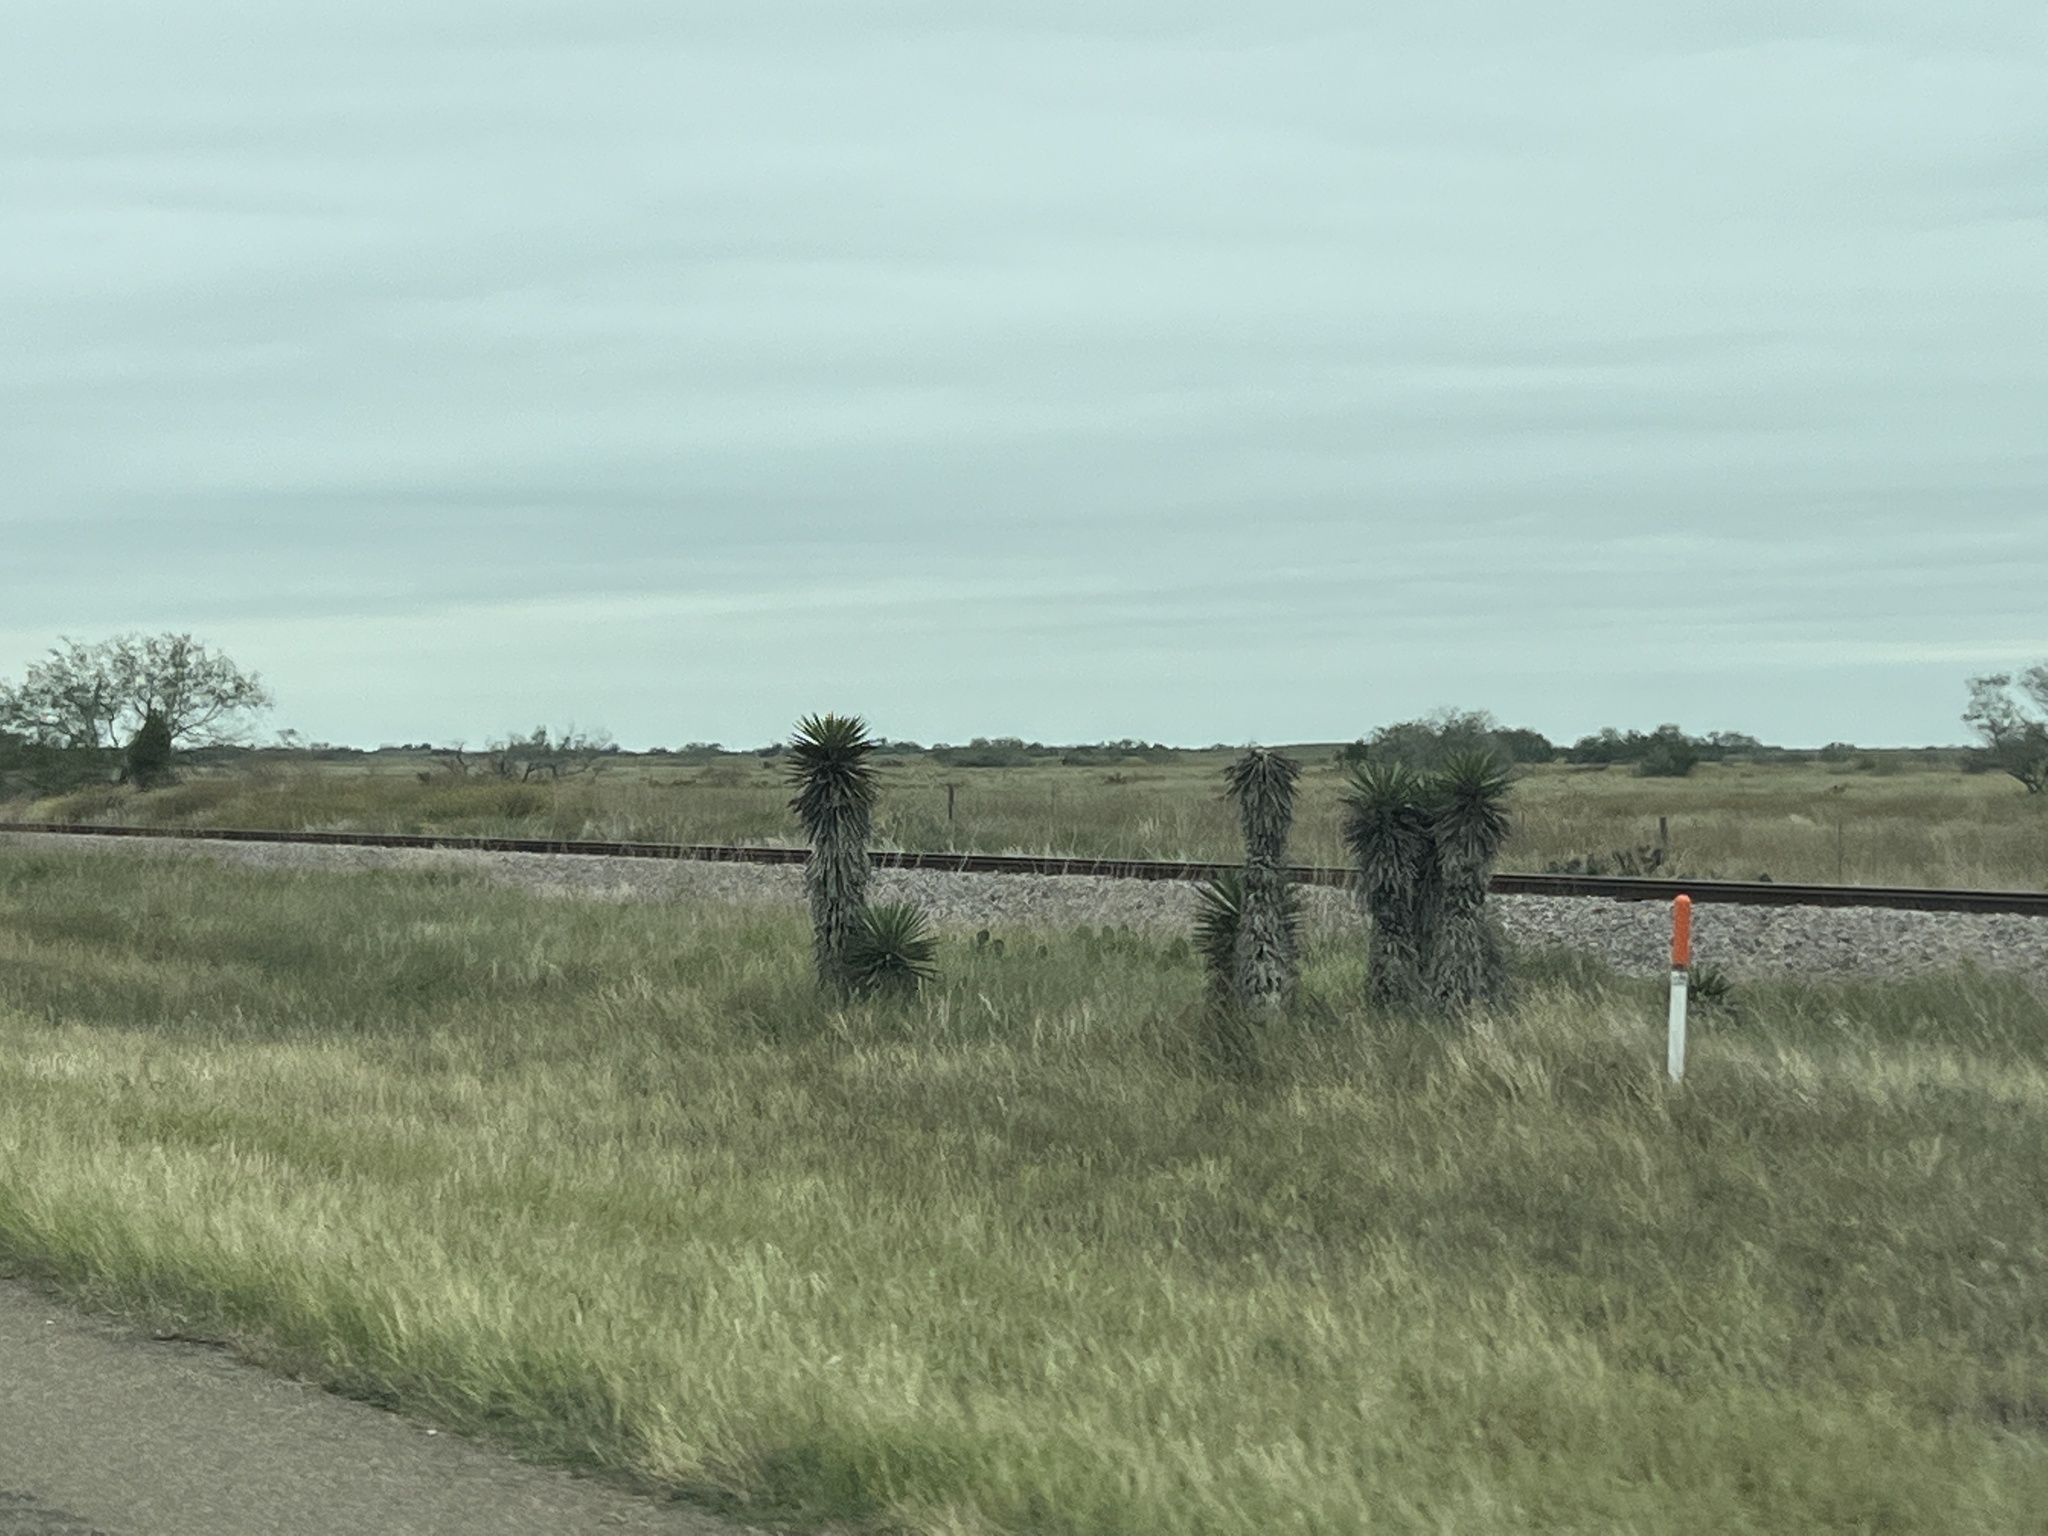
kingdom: Plantae
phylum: Tracheophyta
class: Liliopsida
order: Asparagales
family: Asparagaceae
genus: Yucca
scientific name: Yucca treculiana
